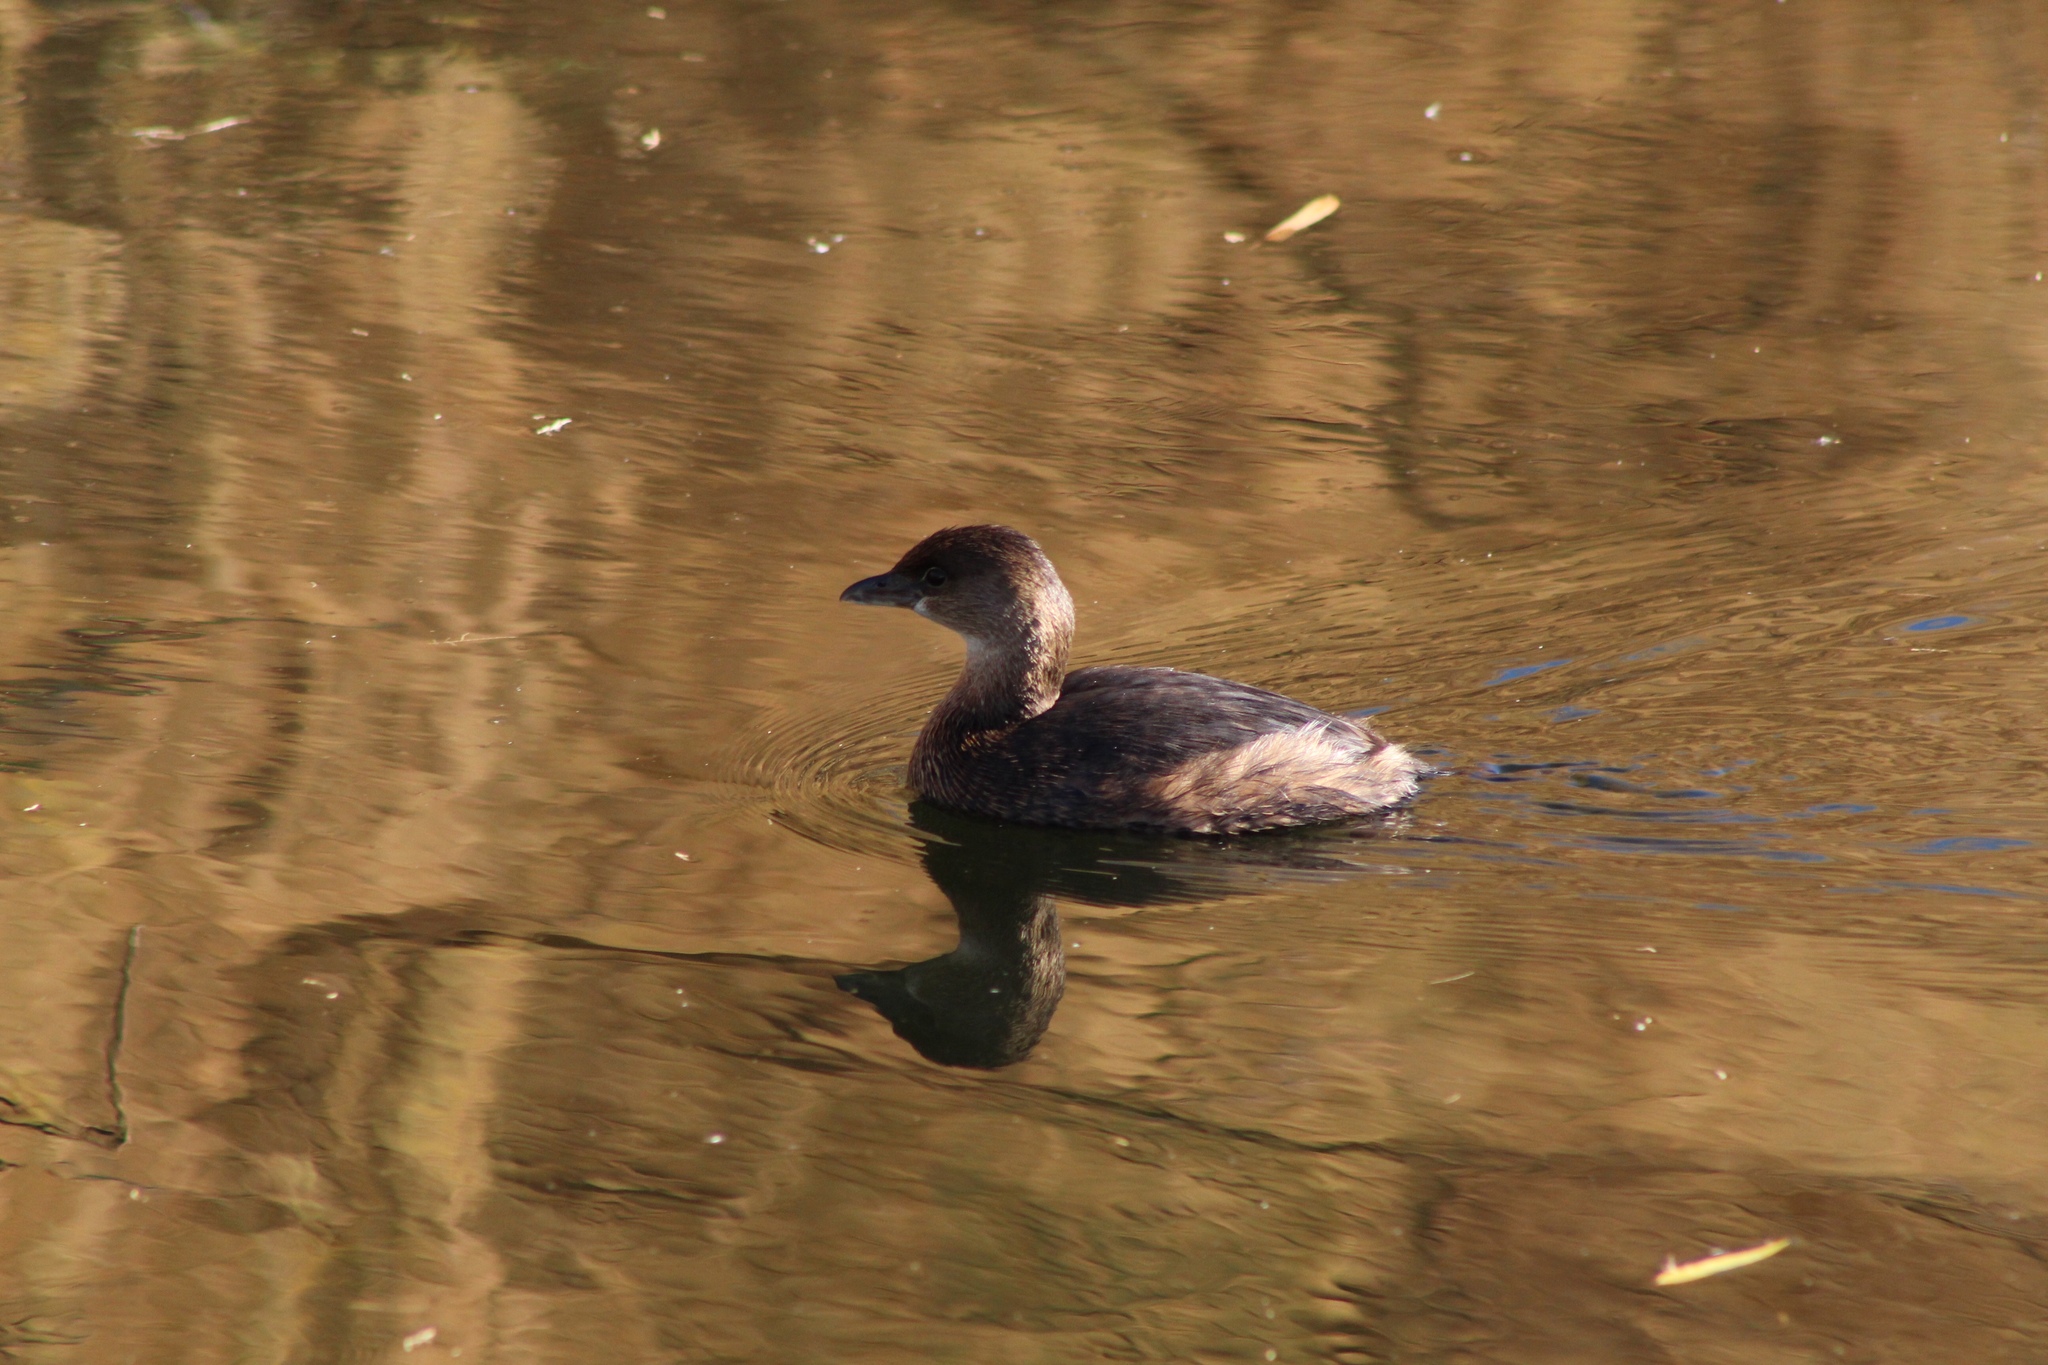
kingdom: Animalia
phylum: Chordata
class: Aves
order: Podicipediformes
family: Podicipedidae
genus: Podilymbus
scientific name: Podilymbus podiceps
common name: Pied-billed grebe
